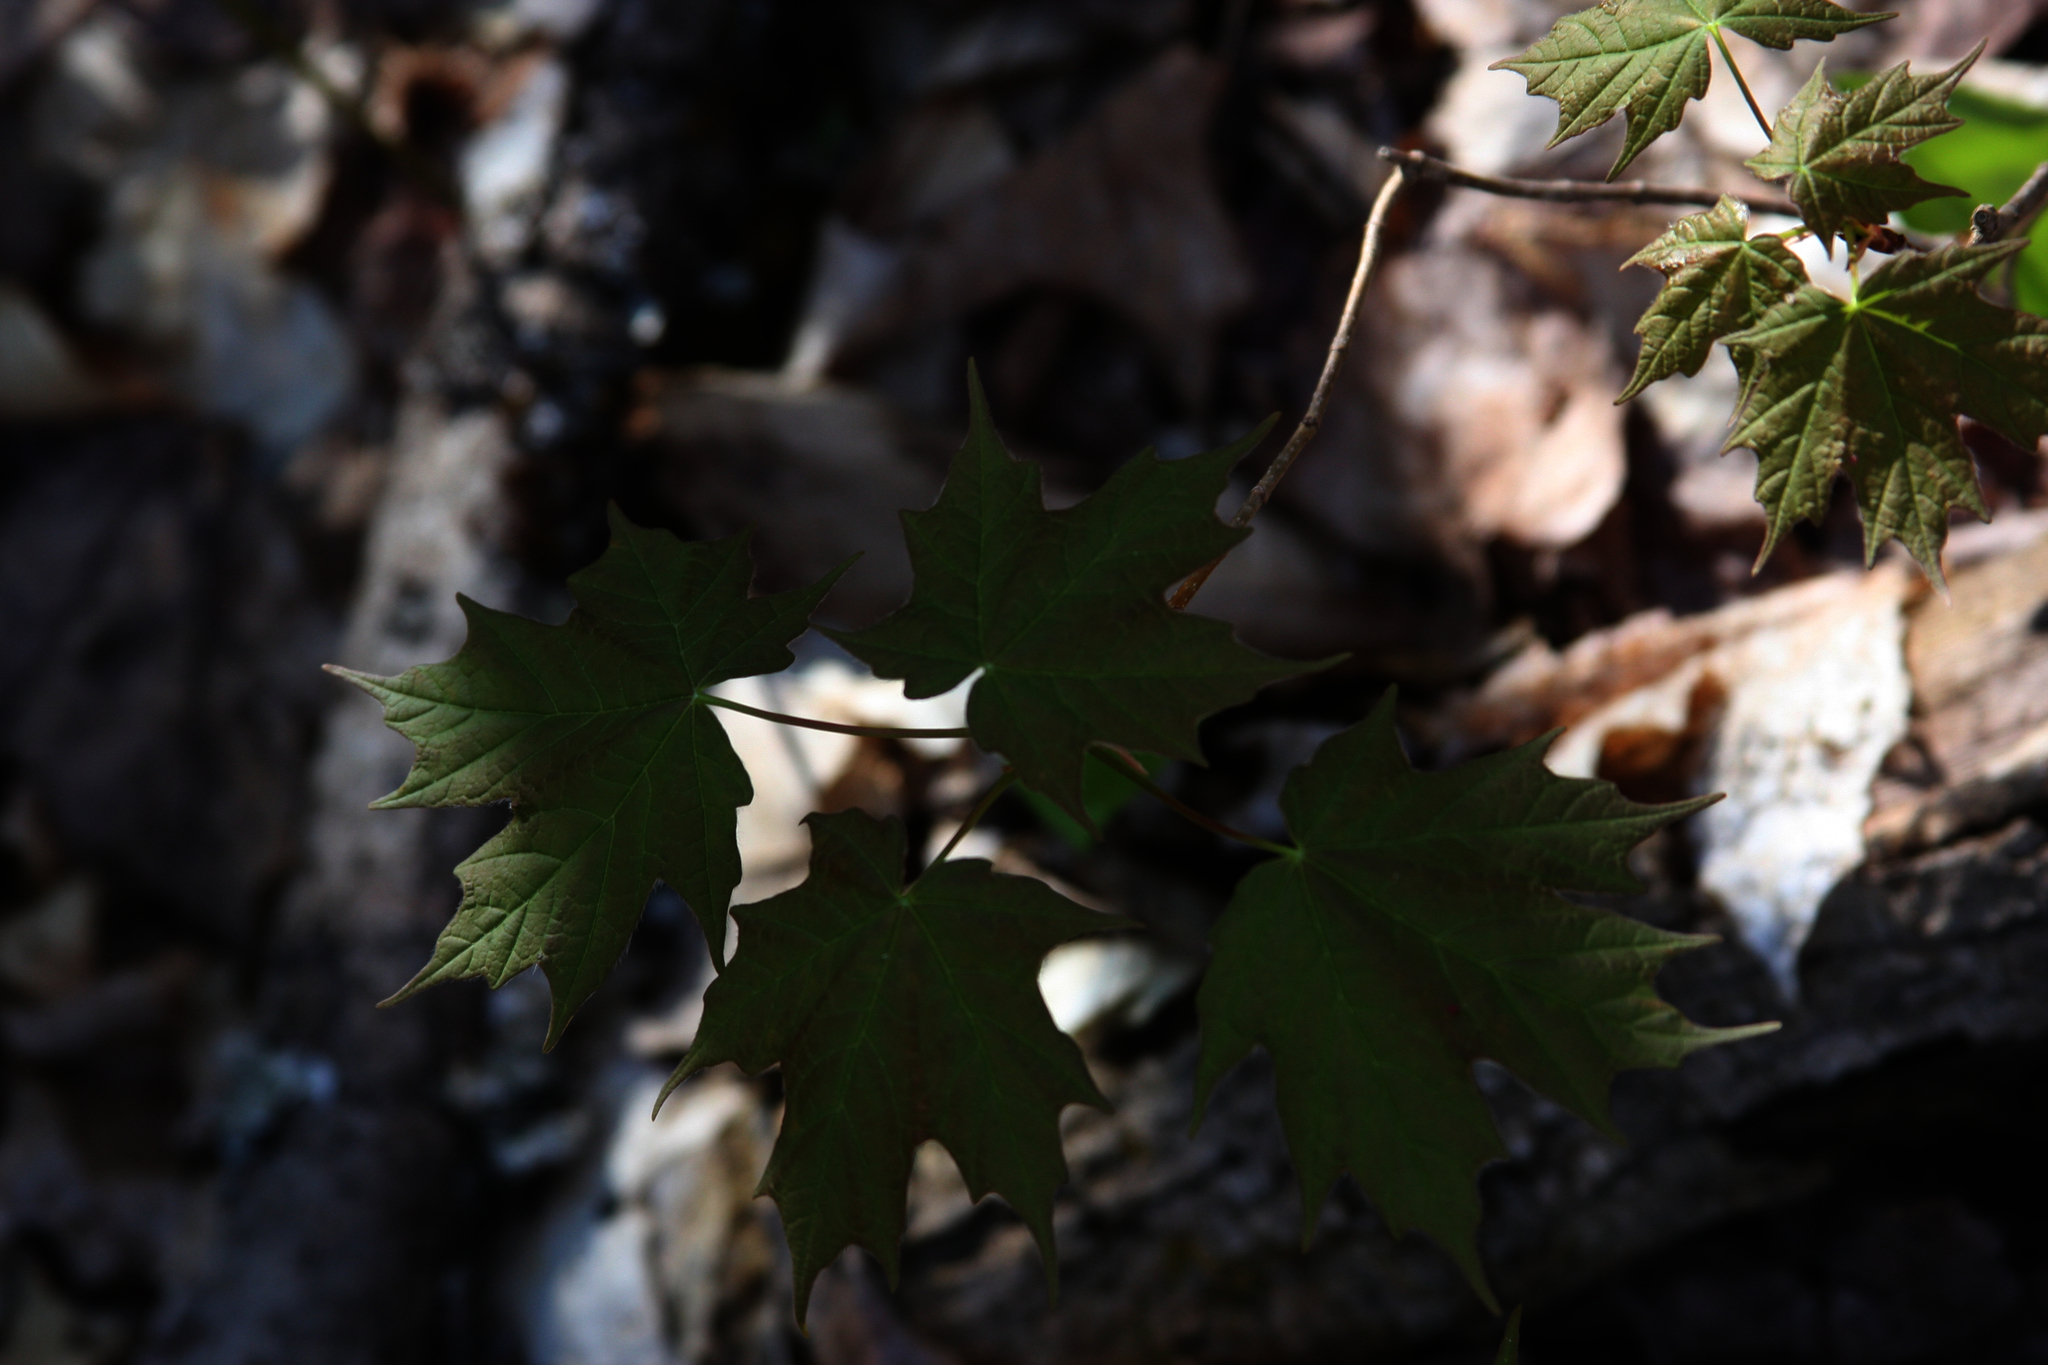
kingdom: Plantae
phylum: Tracheophyta
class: Magnoliopsida
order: Sapindales
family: Sapindaceae
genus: Acer
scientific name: Acer saccharum
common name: Sugar maple
